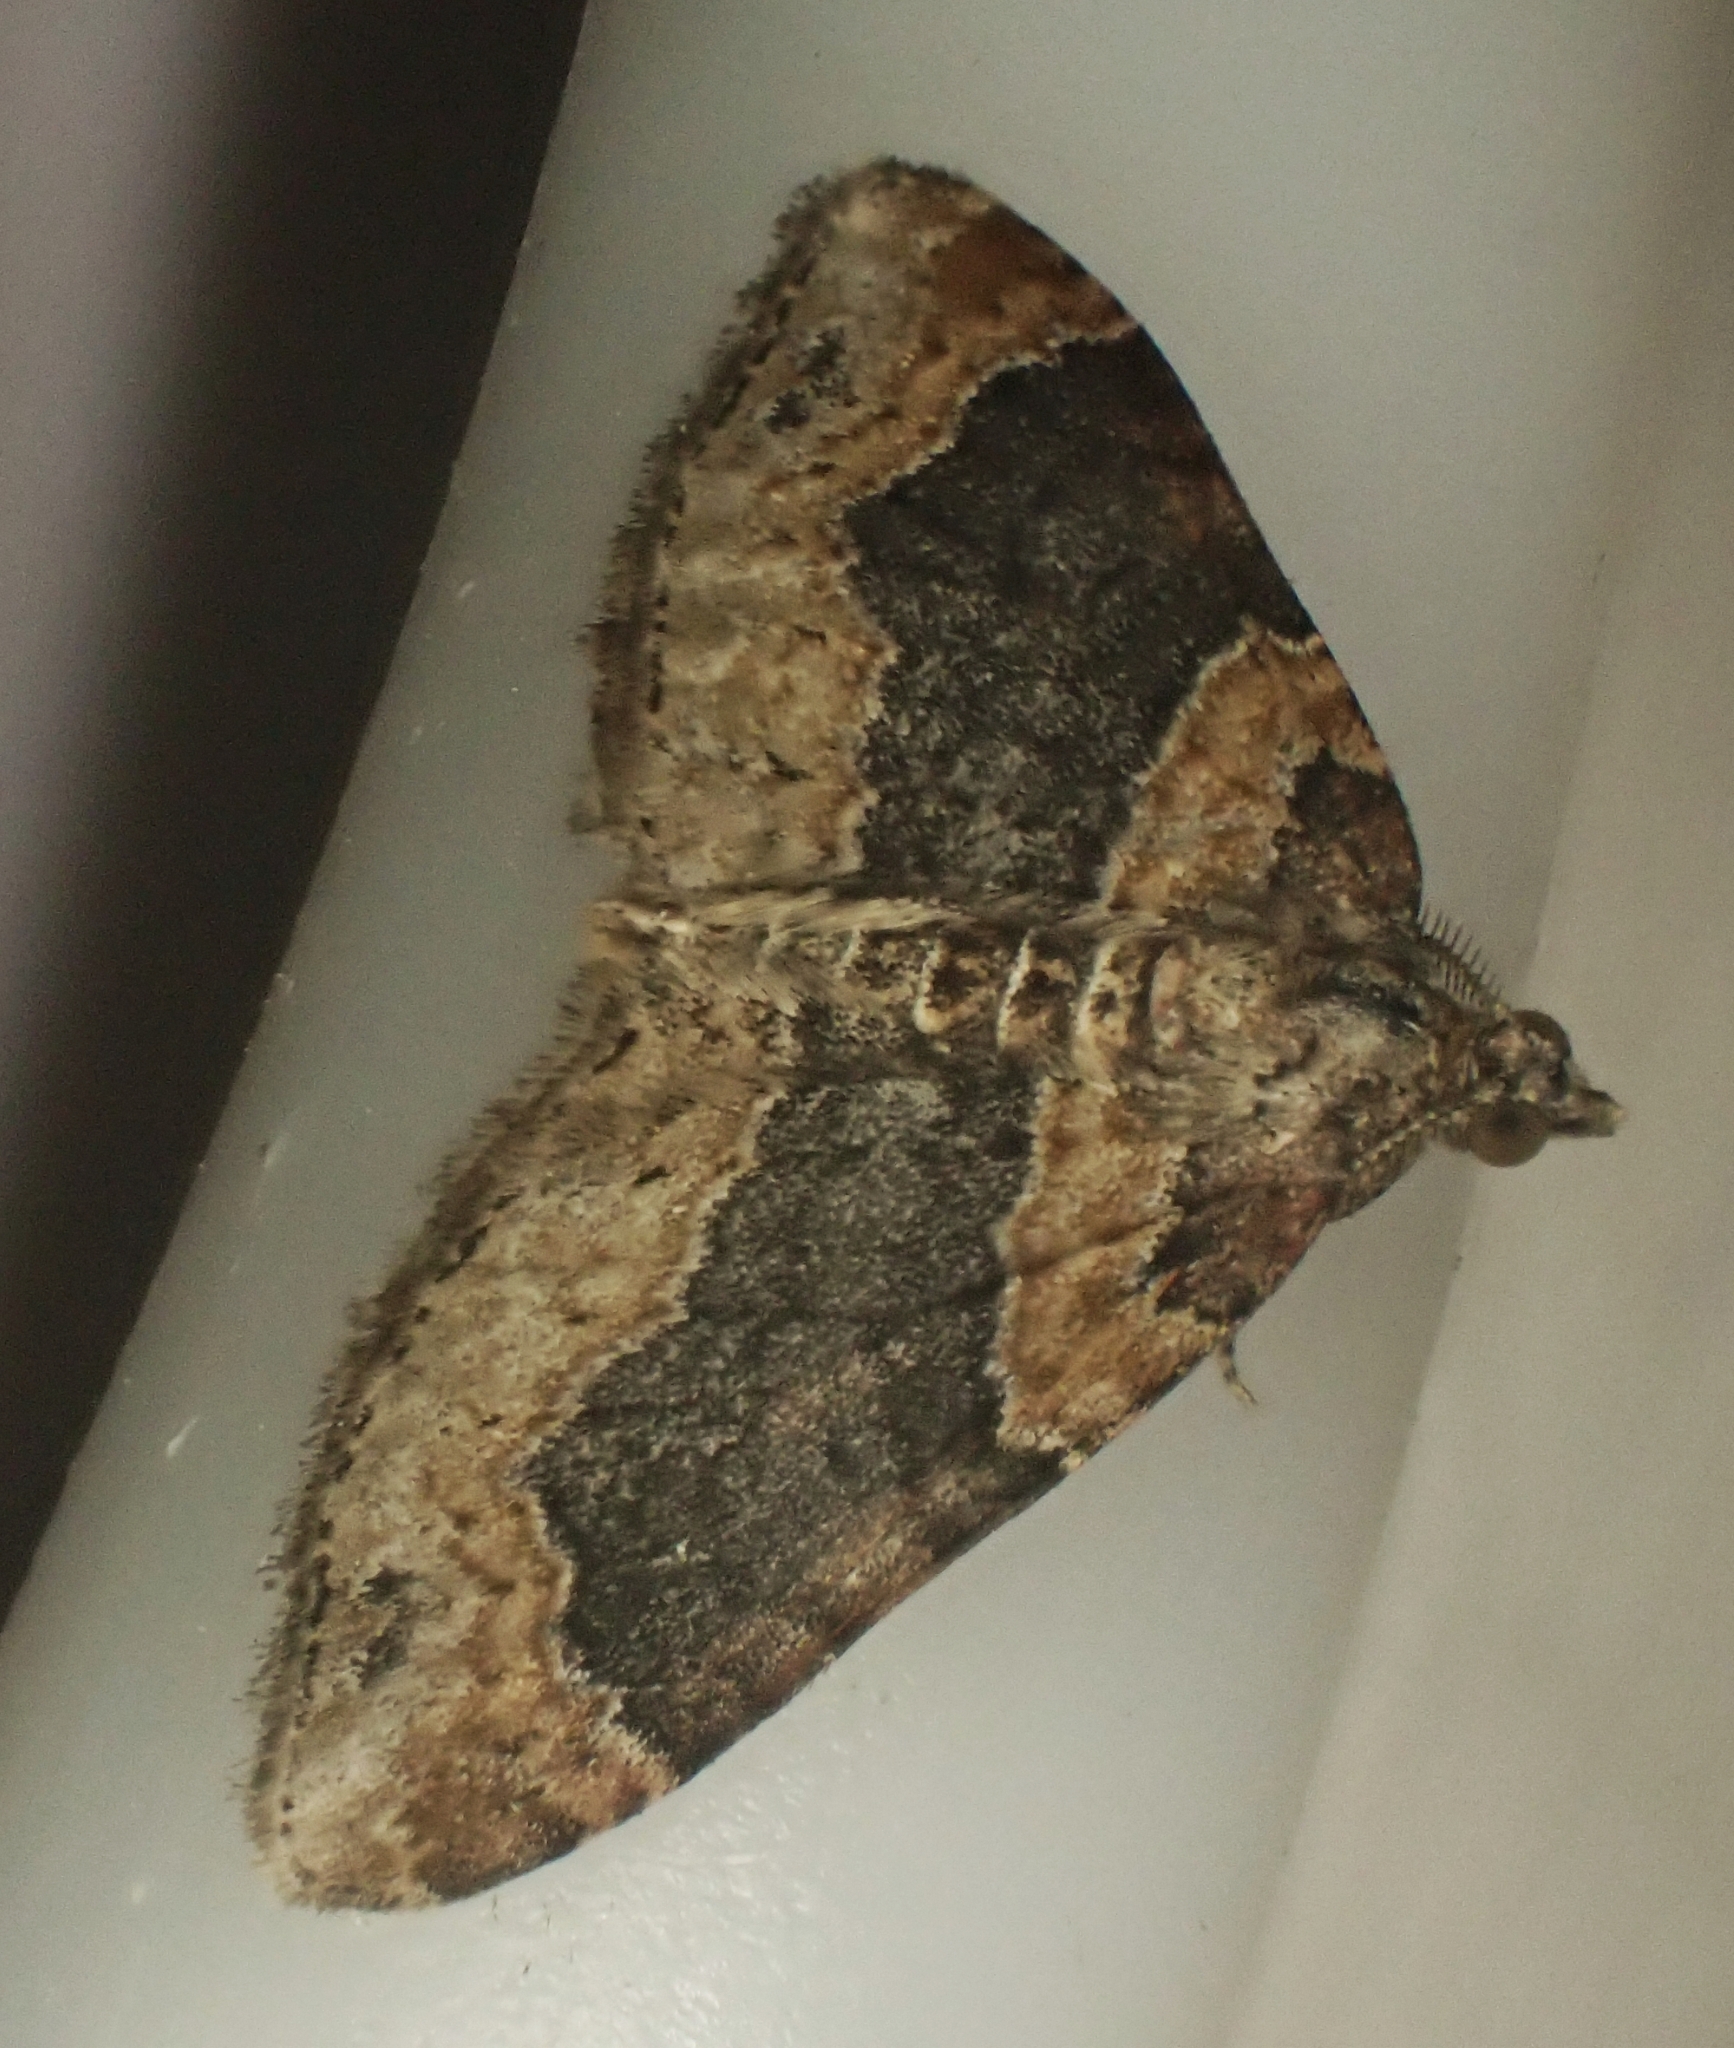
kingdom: Animalia
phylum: Arthropoda
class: Insecta
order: Lepidoptera
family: Geometridae
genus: Xanthorhoe
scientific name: Xanthorhoe ferrugata
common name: Dark-barred twin-spot carpet
